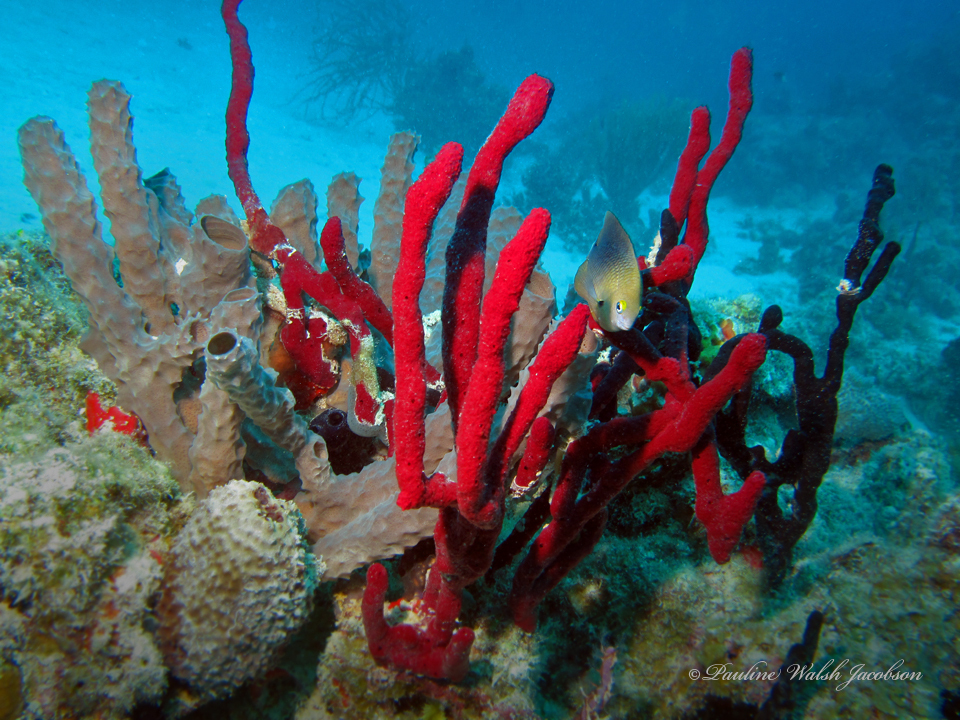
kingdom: Animalia
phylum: Chordata
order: Perciformes
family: Pomacentridae
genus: Stegastes
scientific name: Stegastes planifrons
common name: Threespot damselfish
